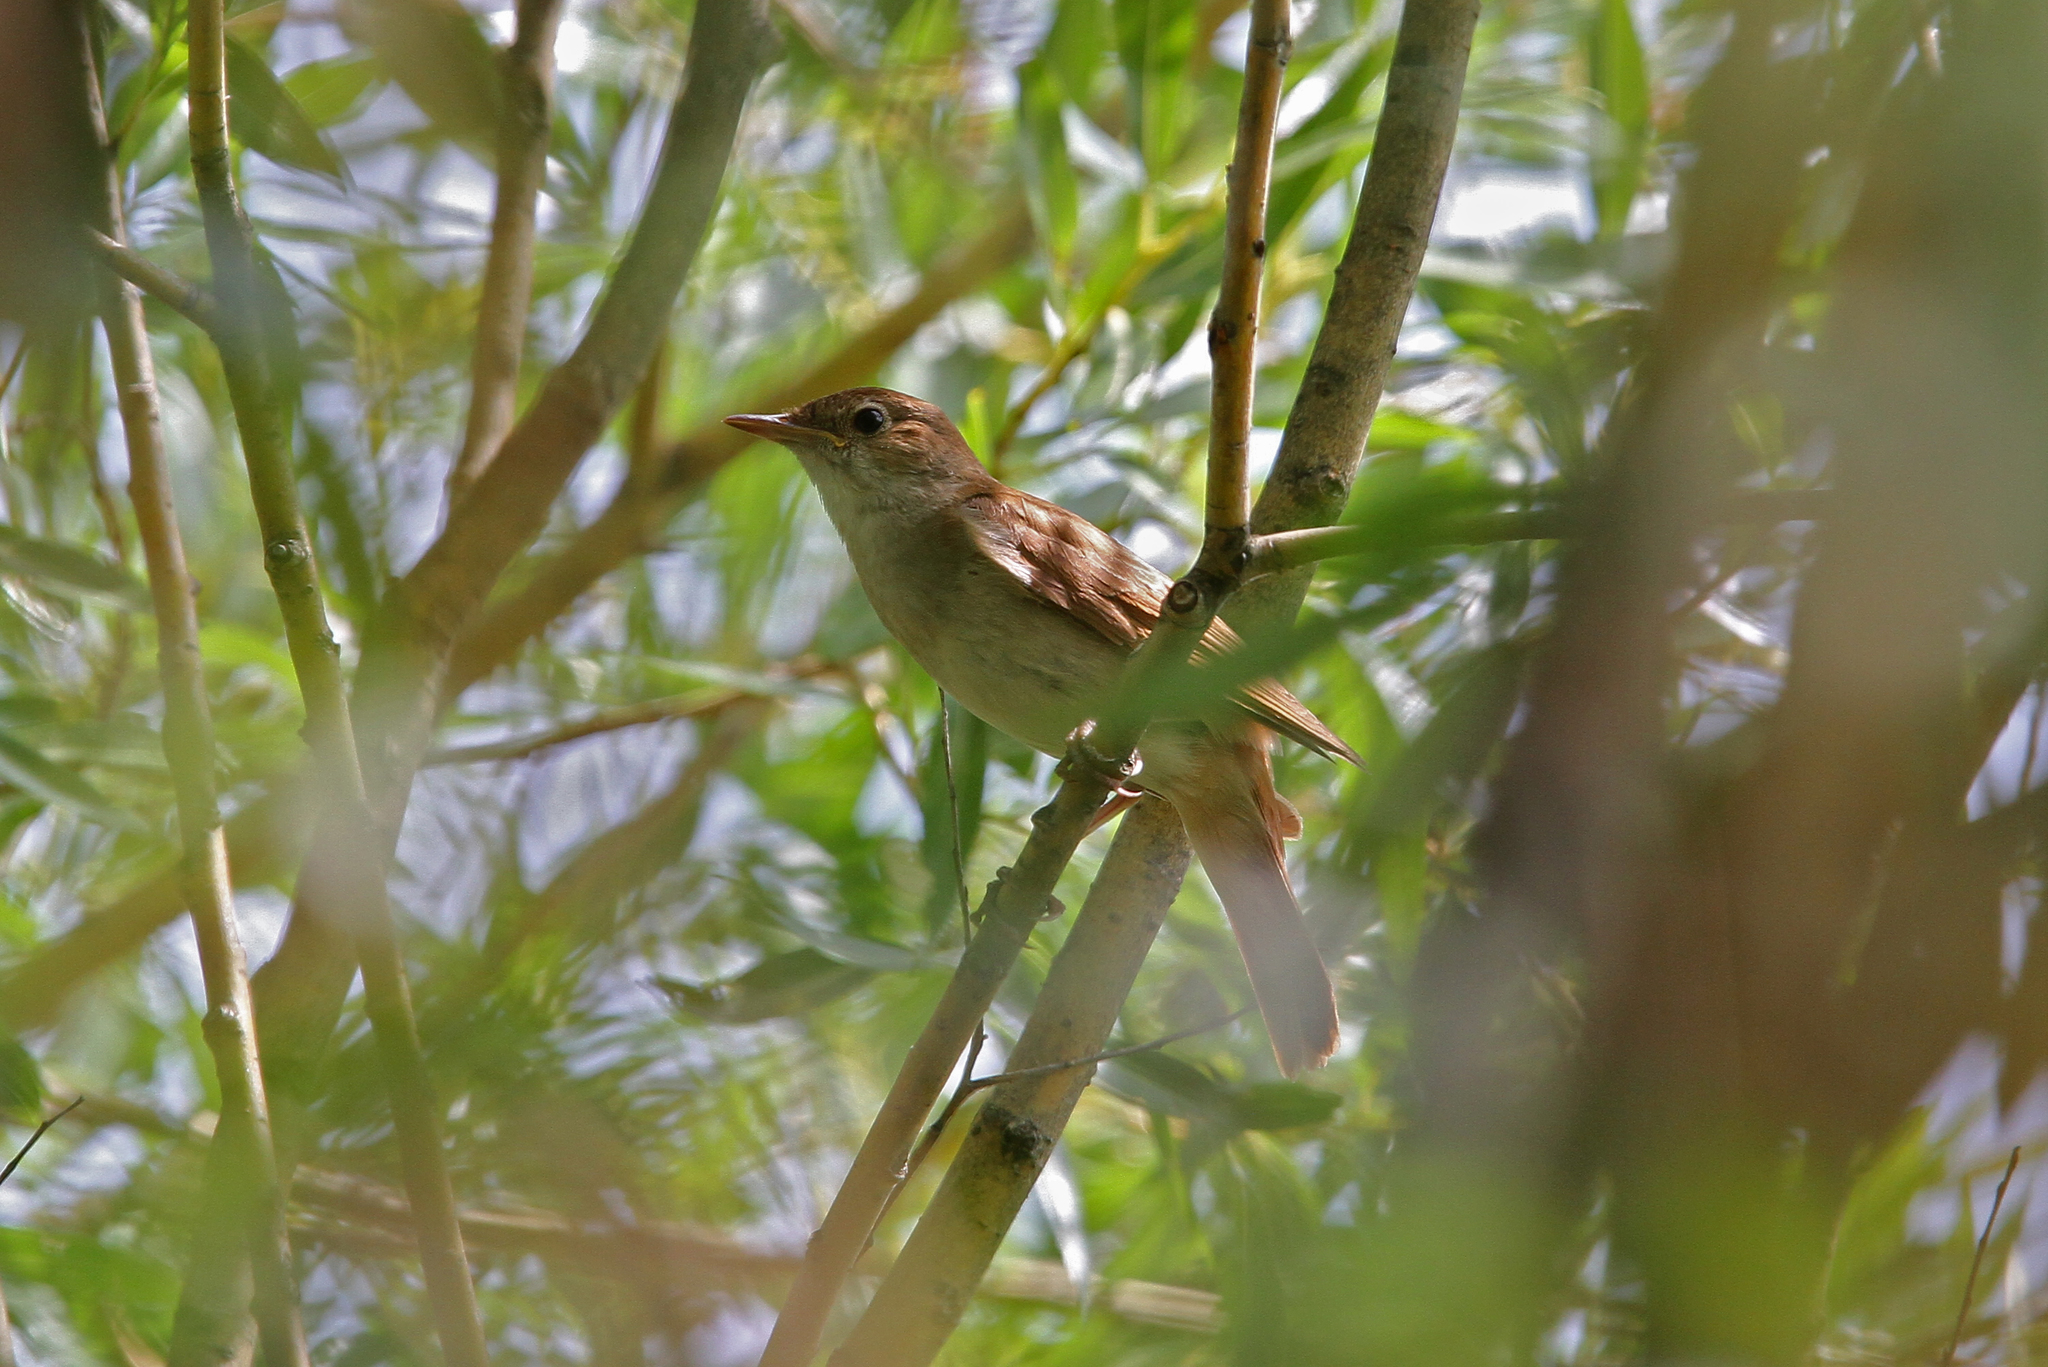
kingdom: Animalia
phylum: Chordata
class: Aves
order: Passeriformes
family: Muscicapidae
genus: Luscinia
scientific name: Luscinia megarhynchos
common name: Common nightingale
